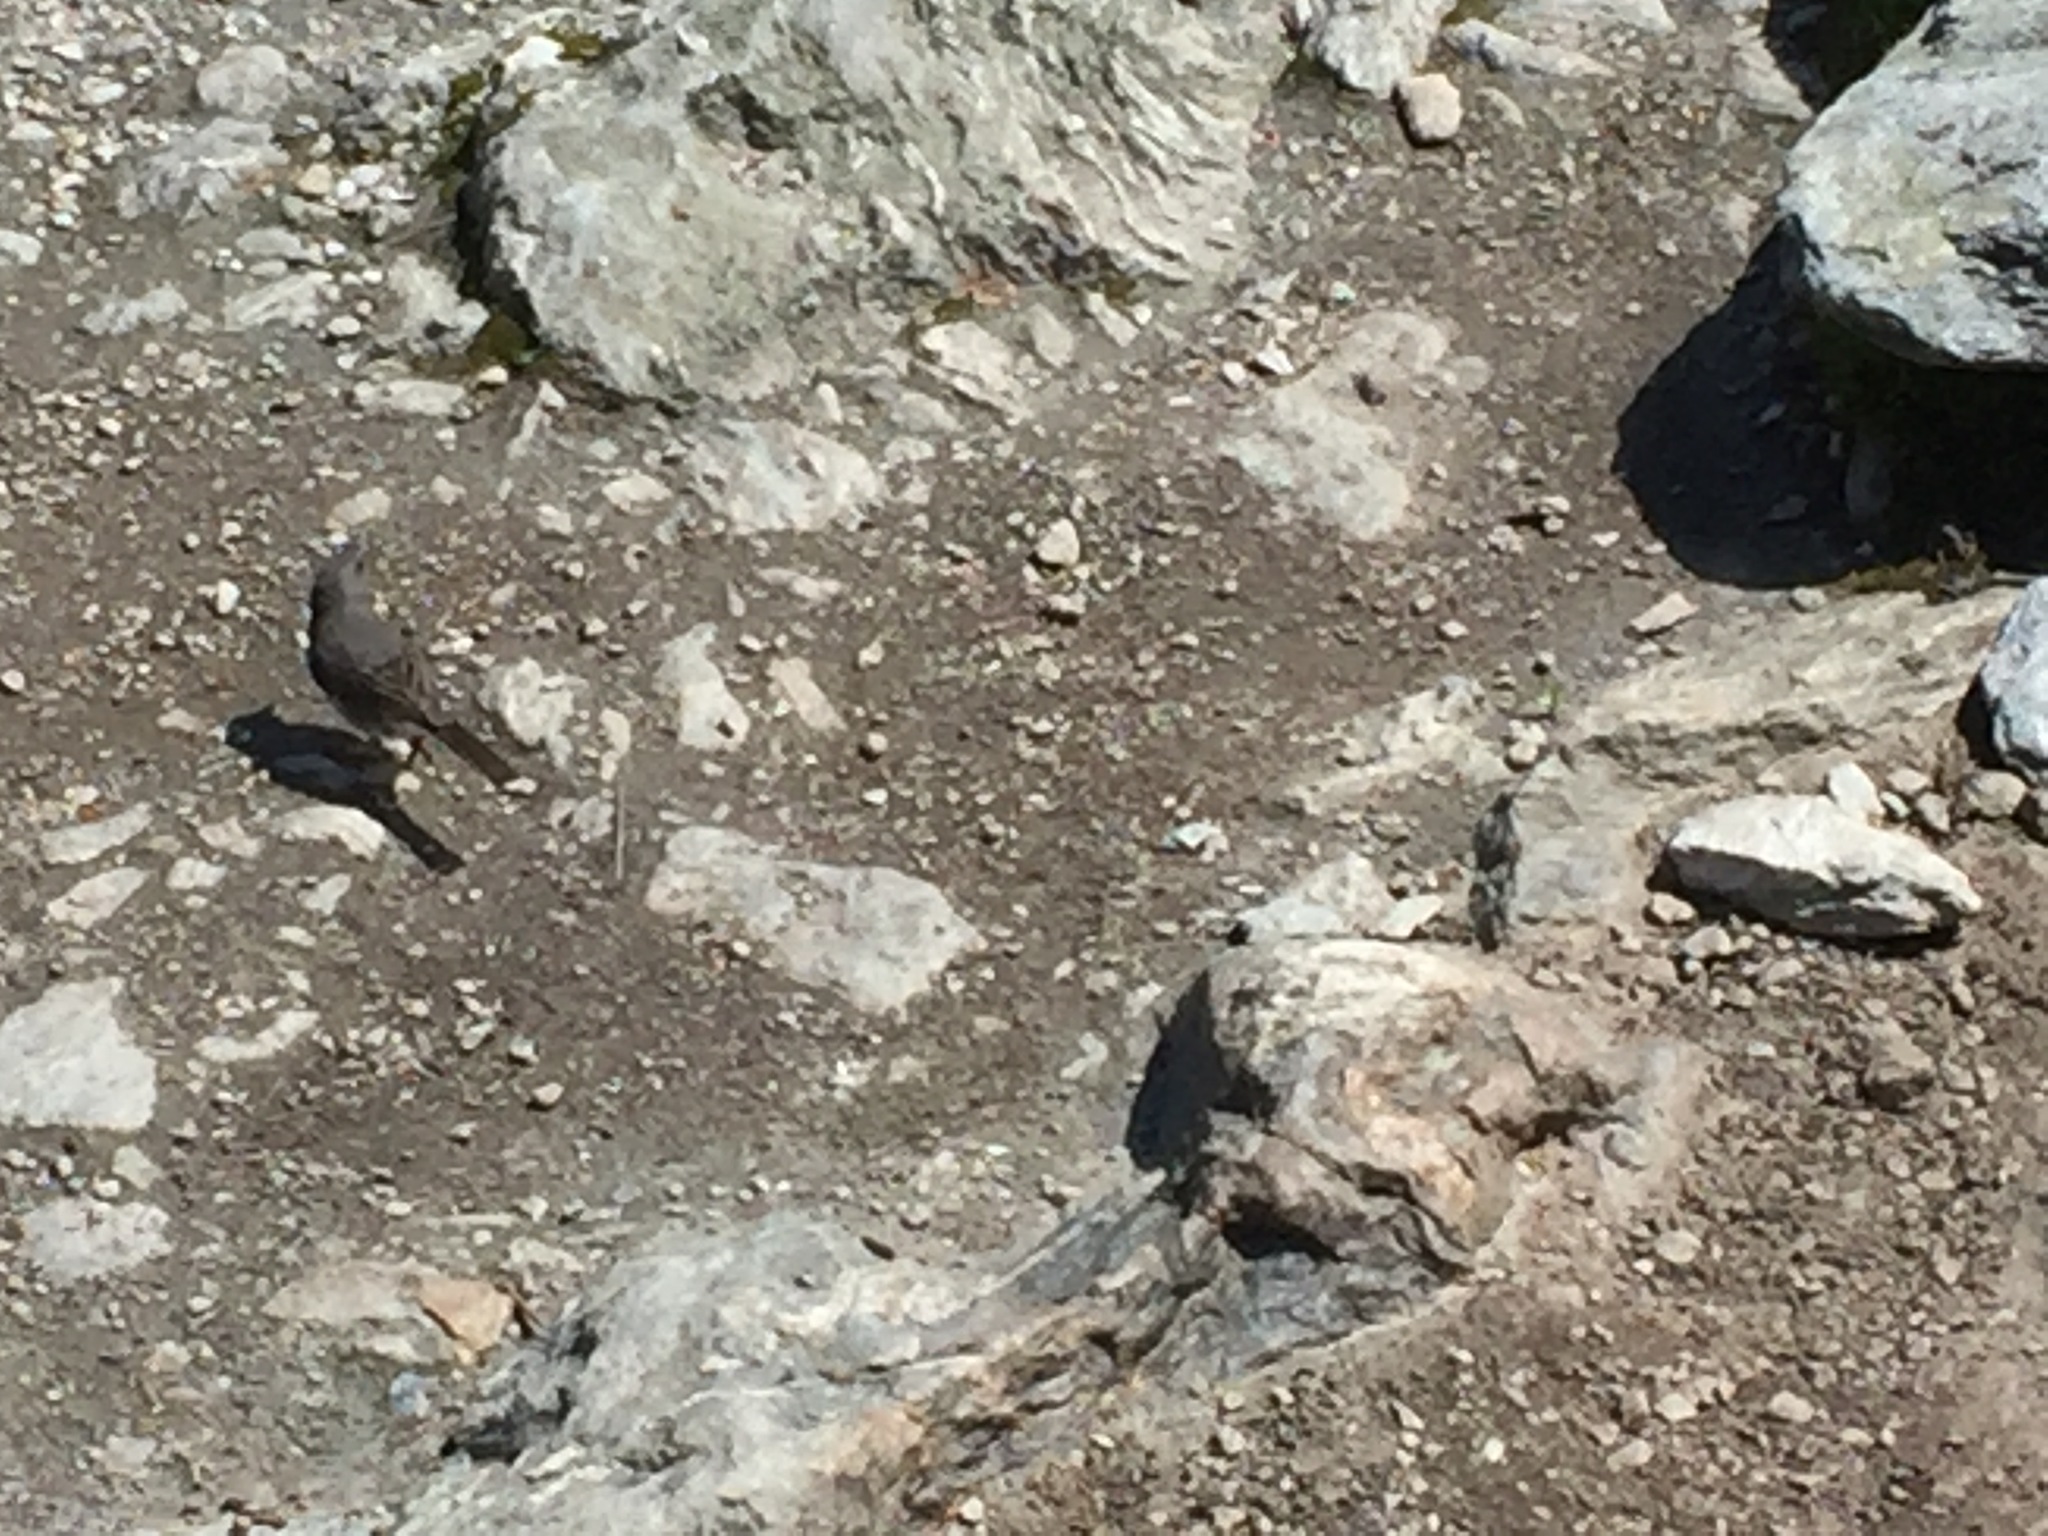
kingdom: Animalia
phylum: Chordata
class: Aves
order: Passeriformes
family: Passerellidae
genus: Junco
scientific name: Junco hyemalis
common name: Dark-eyed junco
